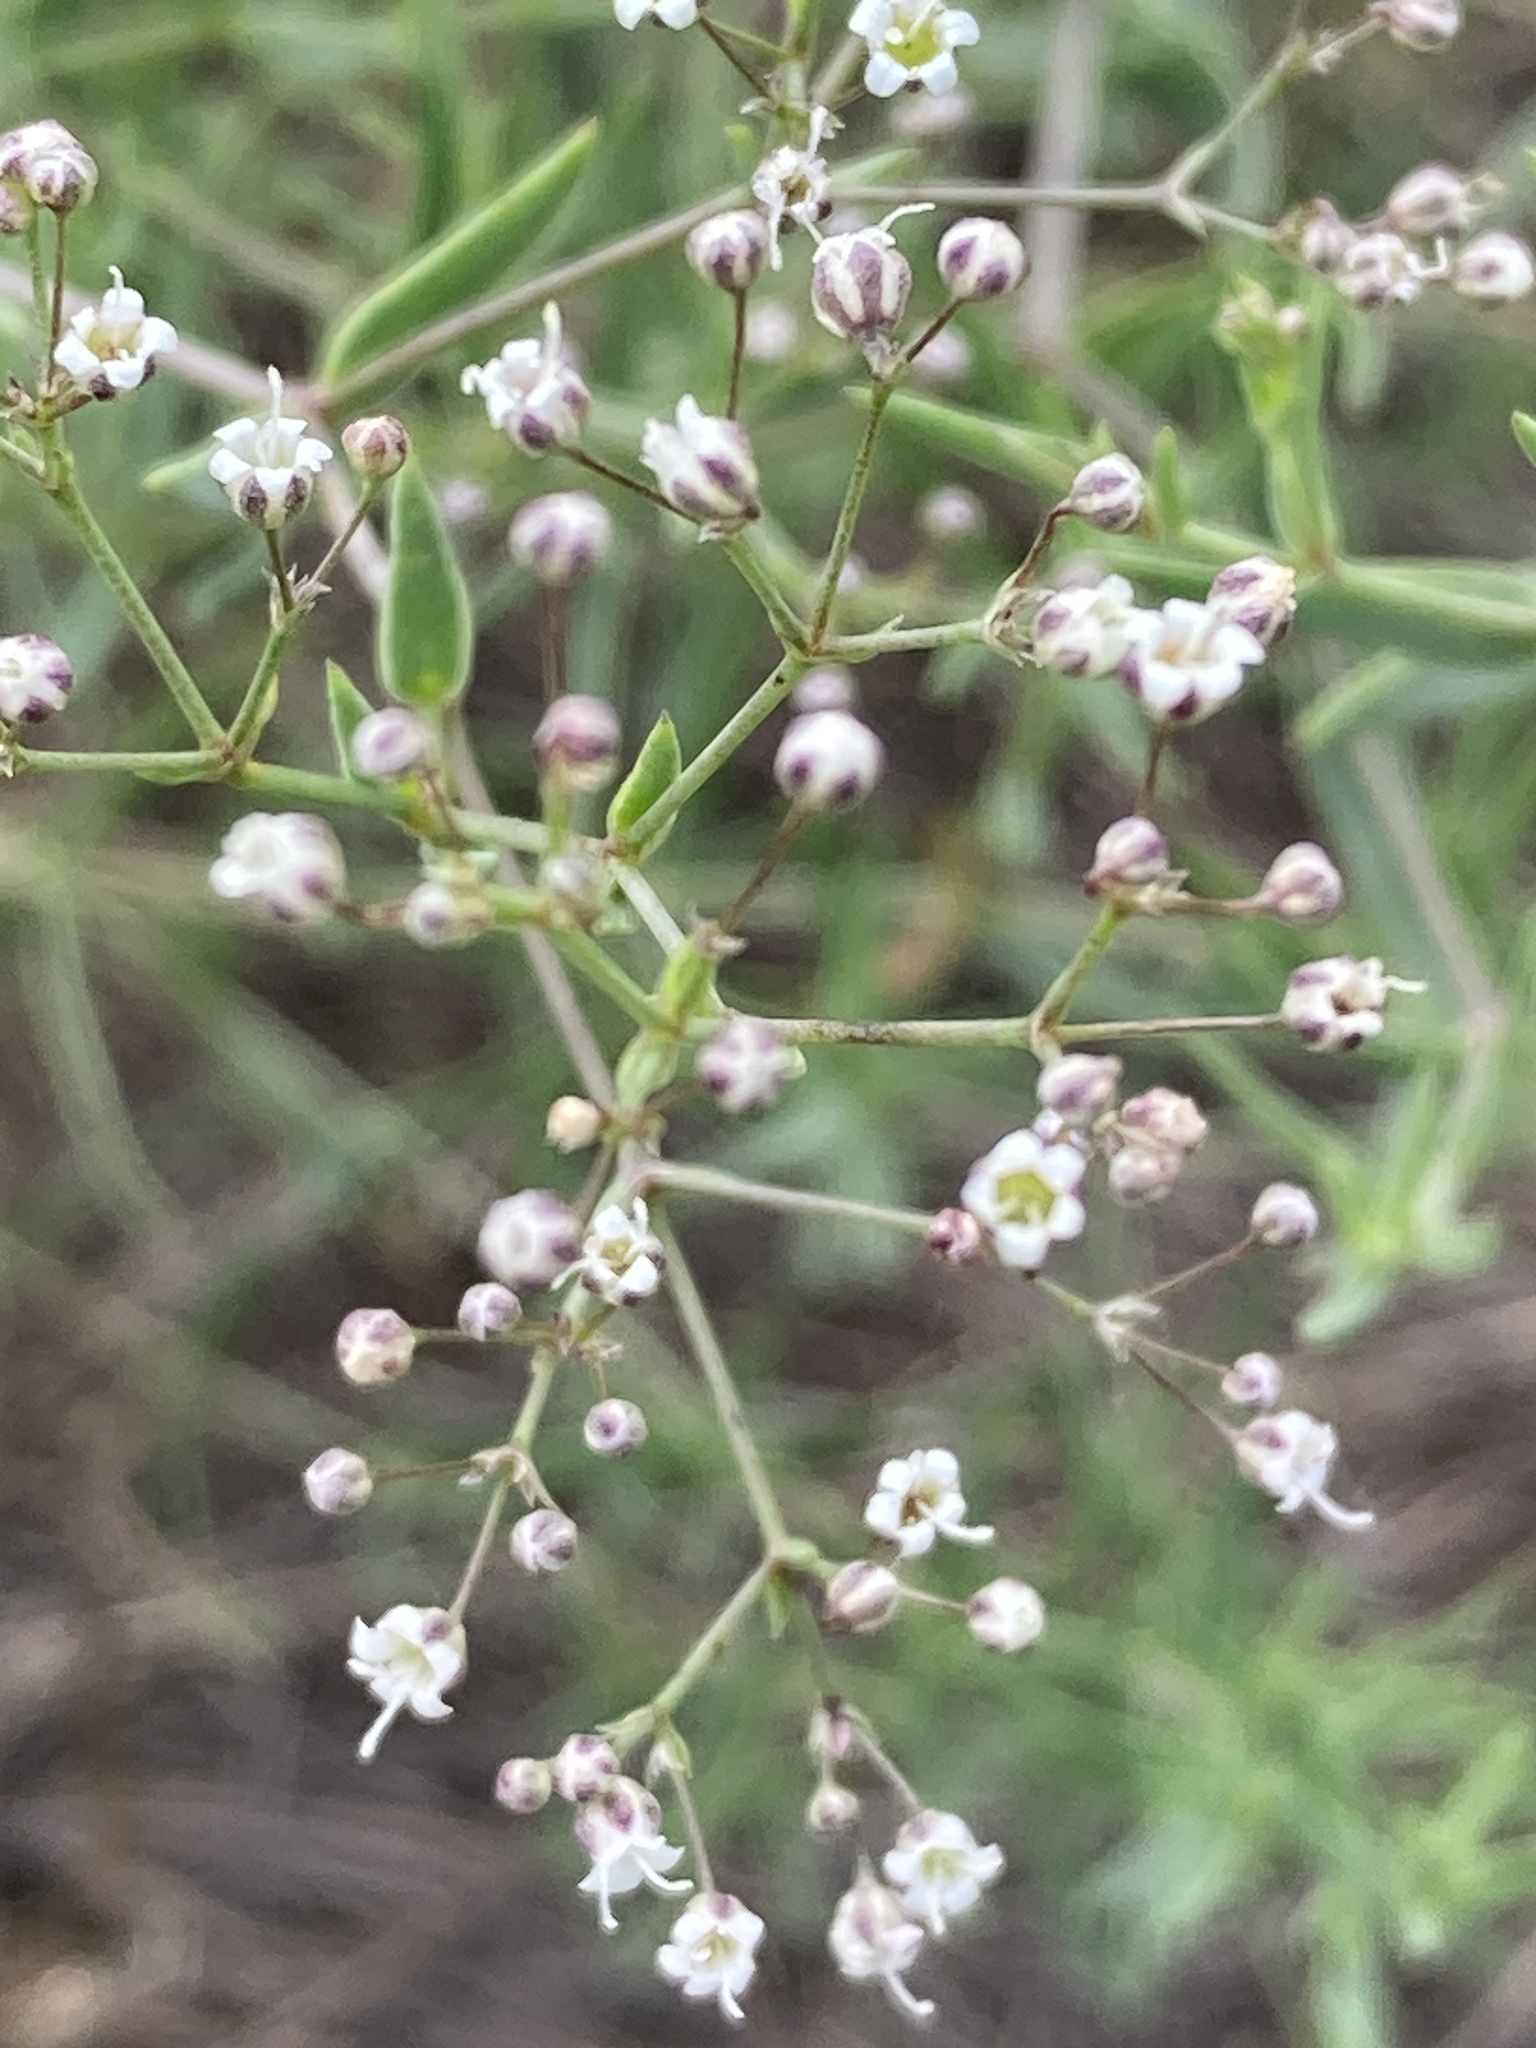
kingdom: Plantae
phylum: Tracheophyta
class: Magnoliopsida
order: Caryophyllales
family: Caryophyllaceae
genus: Gypsophila
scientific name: Gypsophila paniculata
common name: Baby's-breath
